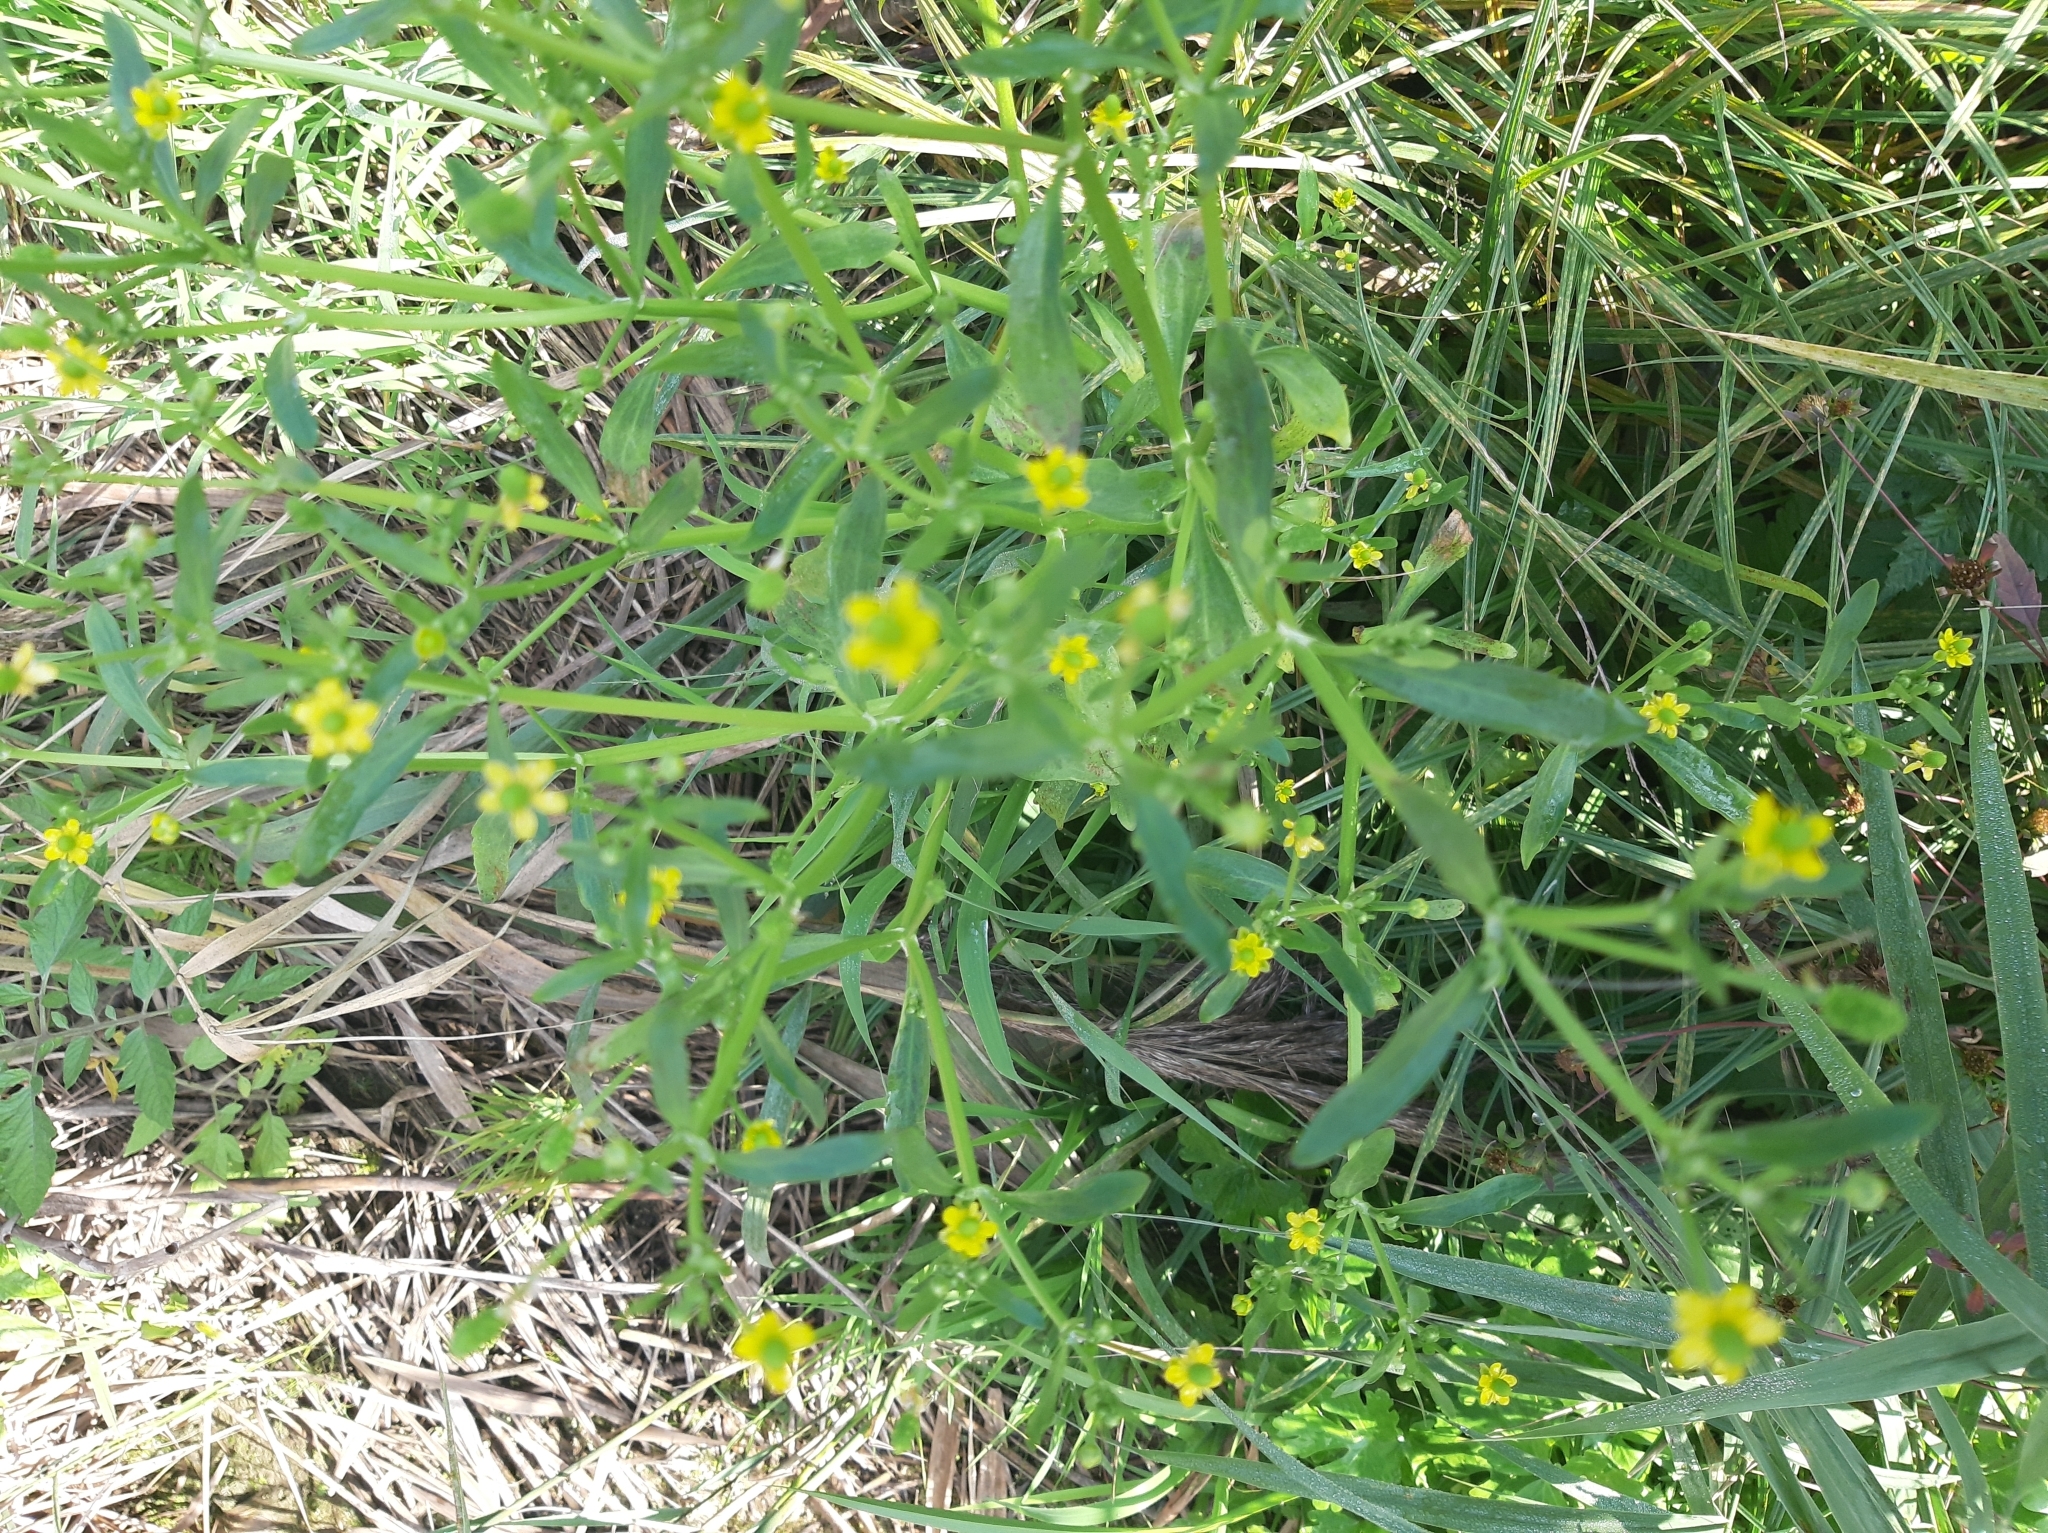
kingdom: Plantae
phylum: Tracheophyta
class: Magnoliopsida
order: Ranunculales
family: Ranunculaceae
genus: Ranunculus
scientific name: Ranunculus sceleratus
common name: Celery-leaved buttercup
